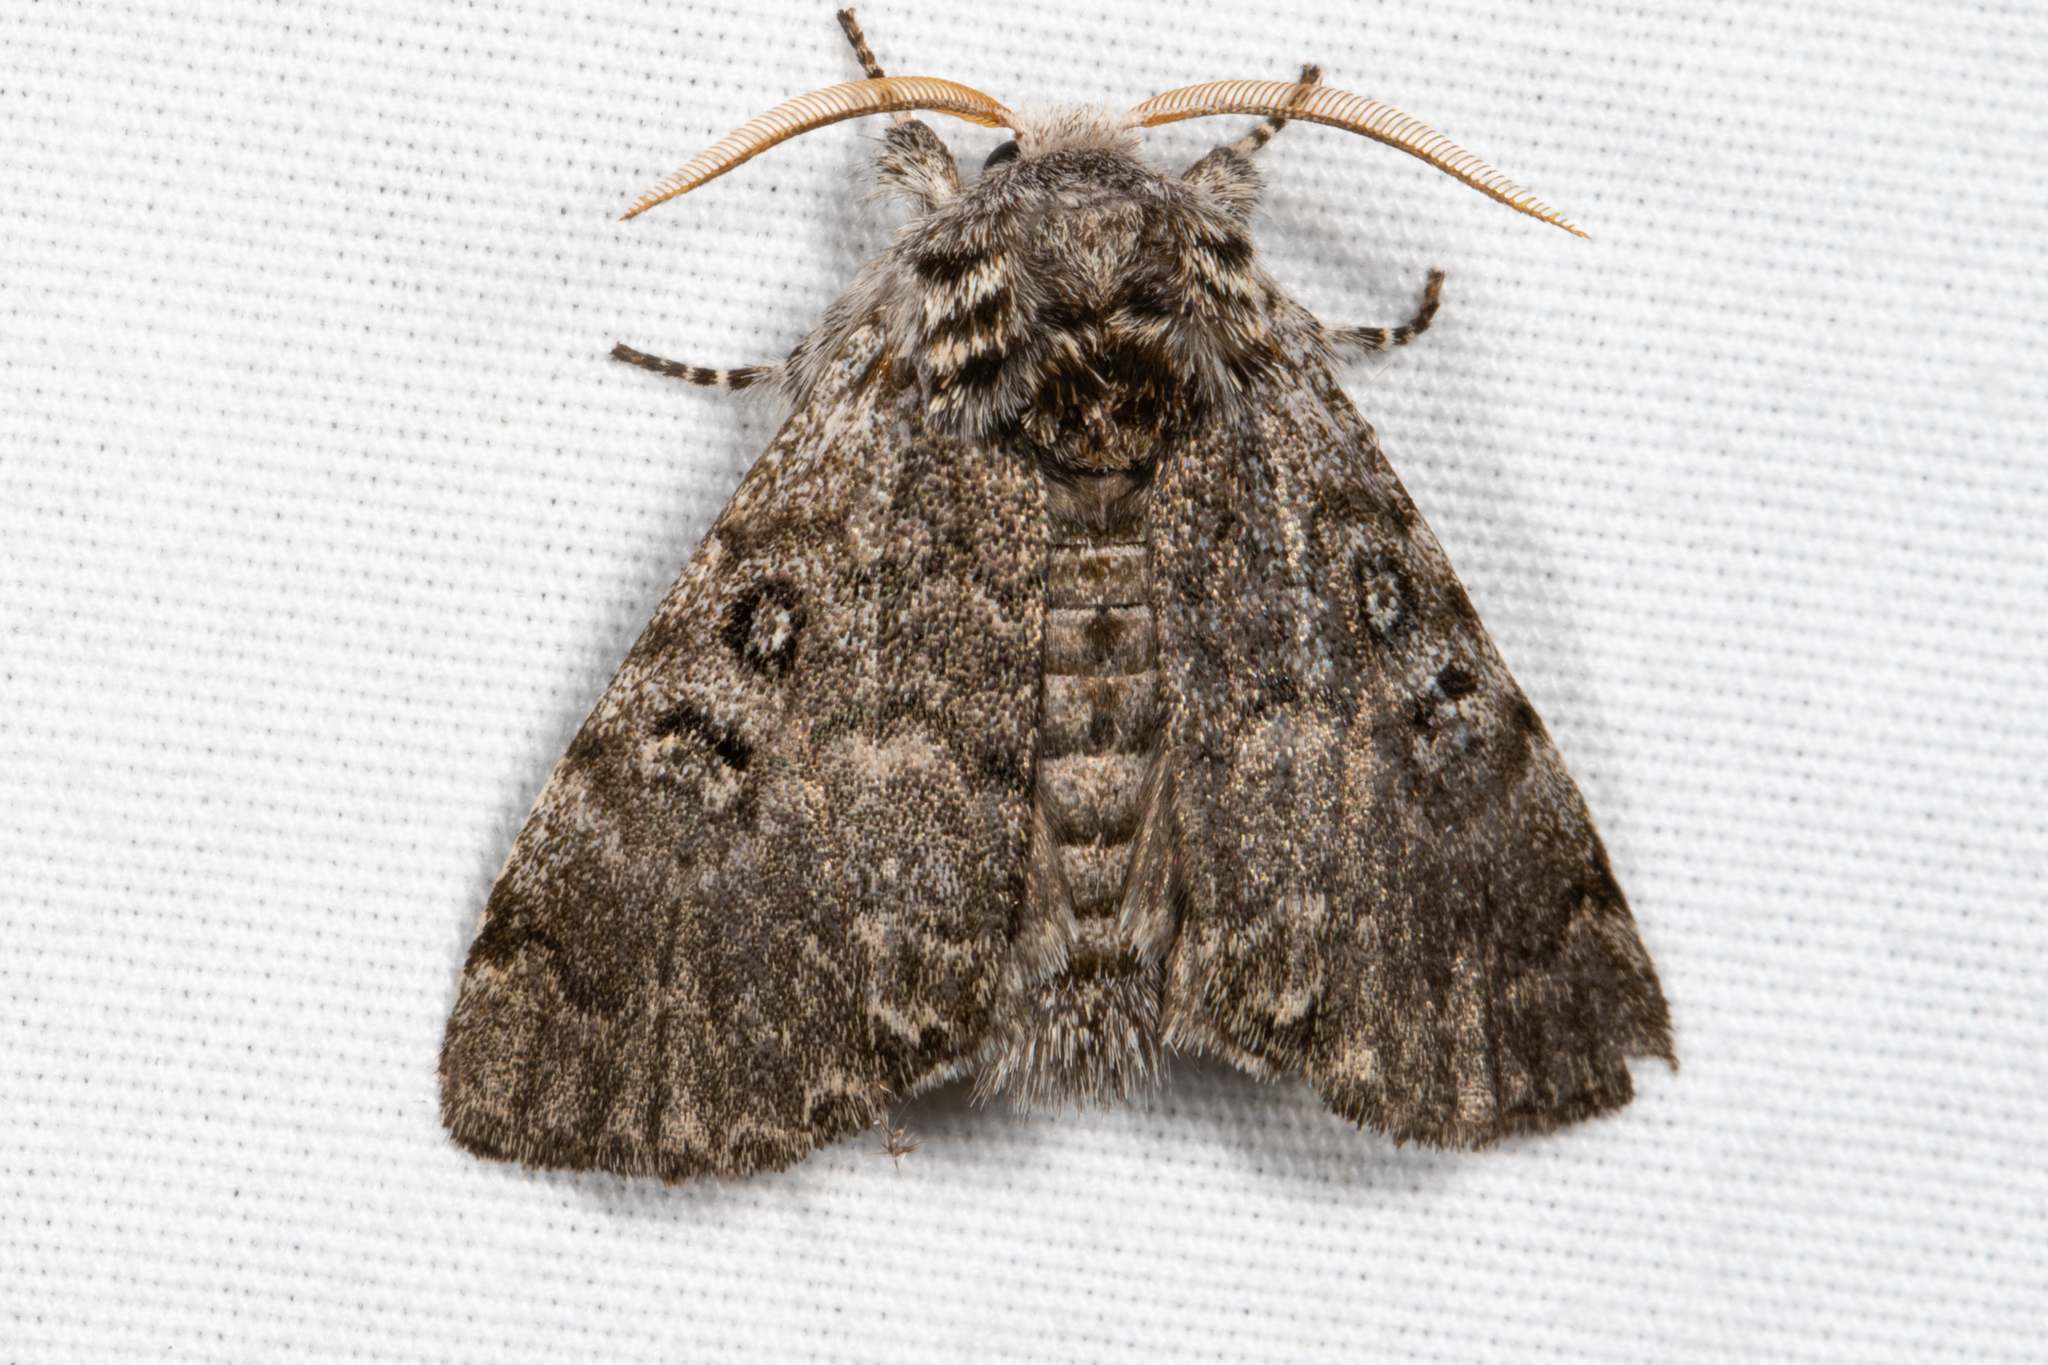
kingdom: Animalia
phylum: Arthropoda
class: Insecta
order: Lepidoptera
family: Noctuidae
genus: Colocasia
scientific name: Colocasia propinquilinea
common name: Close-banded demas
